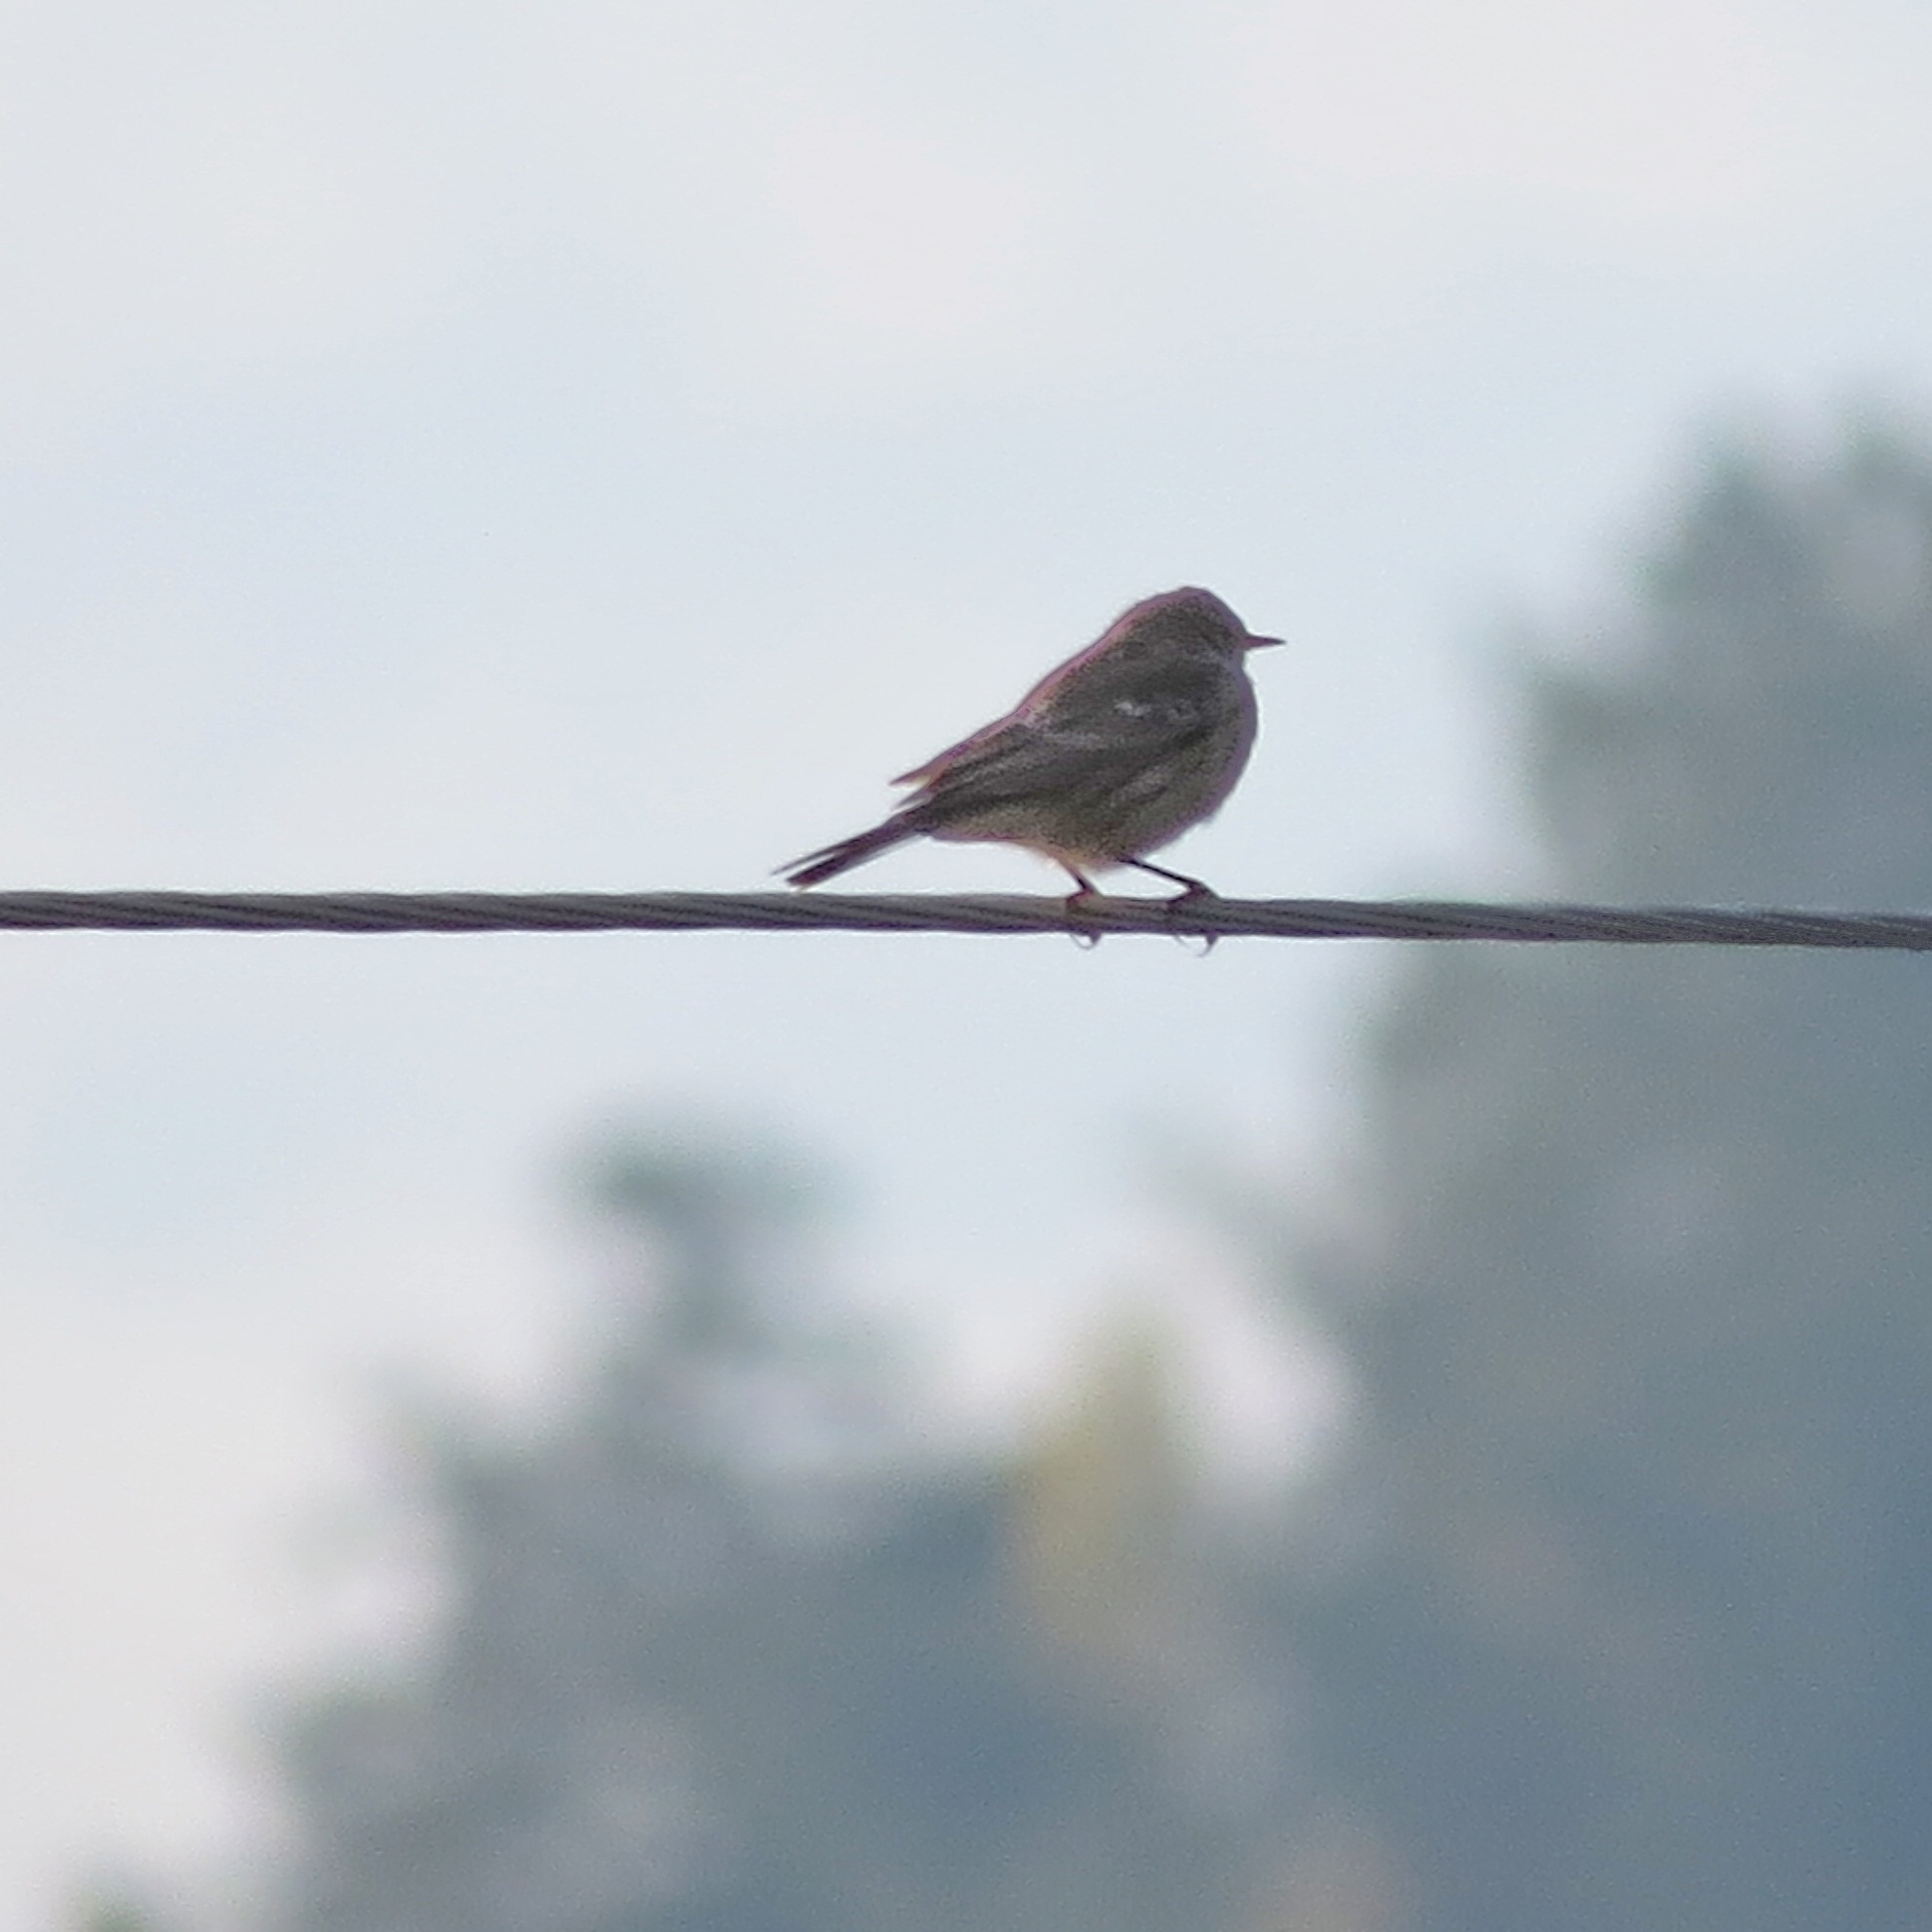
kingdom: Animalia
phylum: Chordata
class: Aves
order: Passeriformes
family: Motacillidae
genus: Anthus
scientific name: Anthus spinoletta
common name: Water pipit
